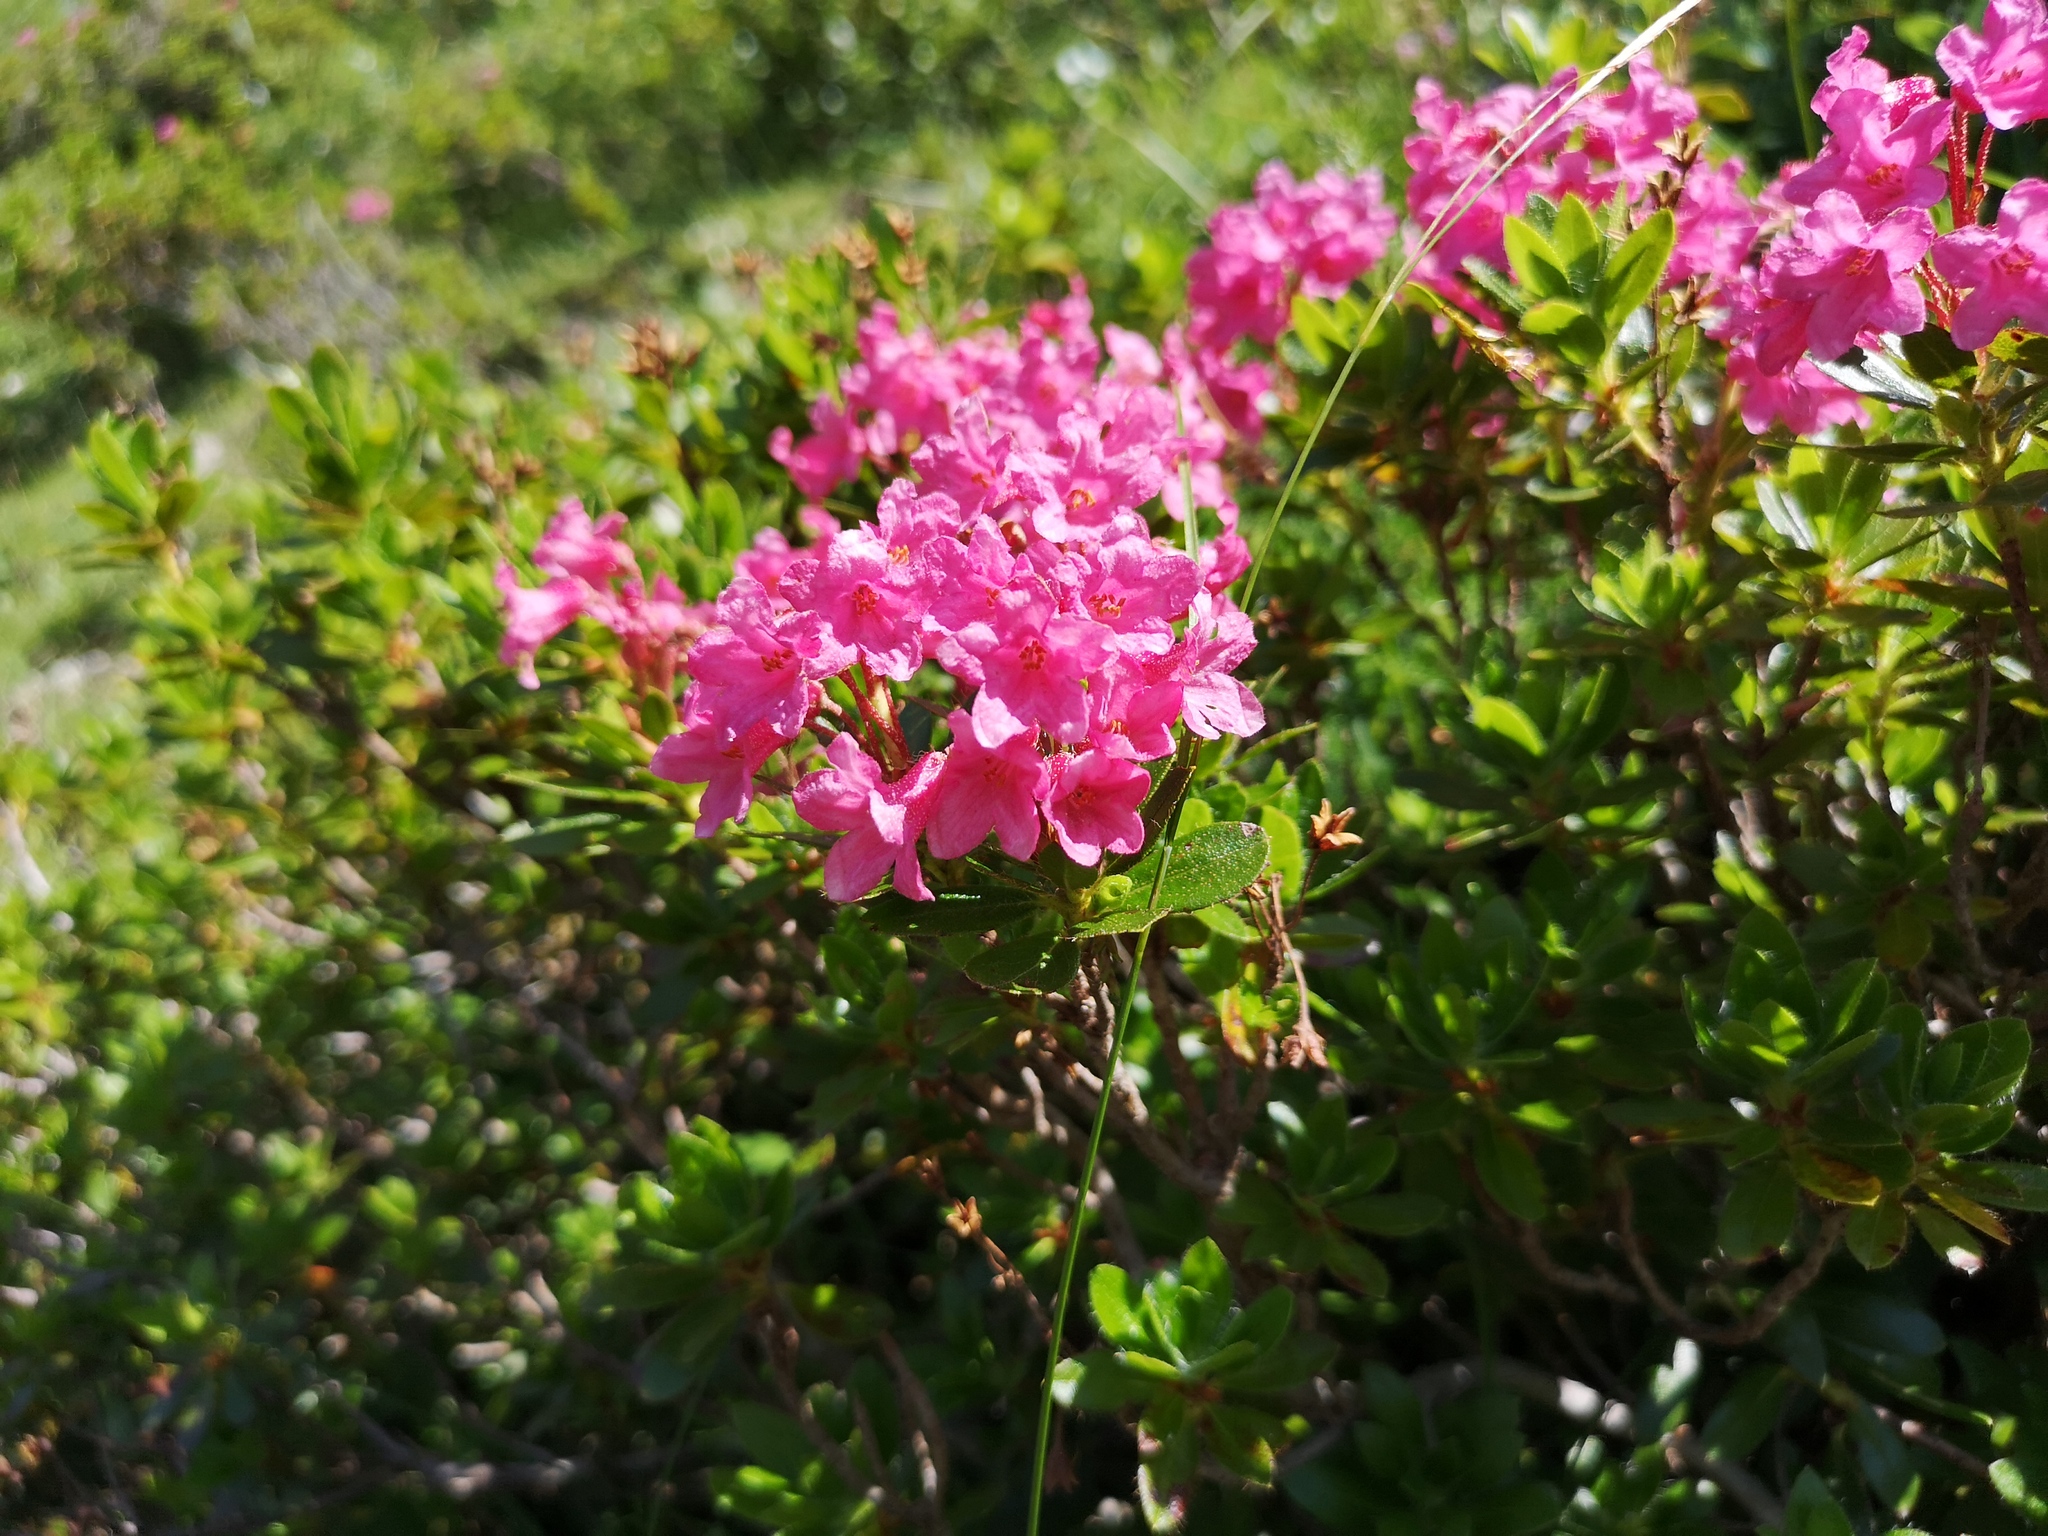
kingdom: Plantae
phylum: Tracheophyta
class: Magnoliopsida
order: Ericales
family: Ericaceae
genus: Rhododendron
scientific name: Rhododendron hirsutum
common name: Hairy alpenrose
